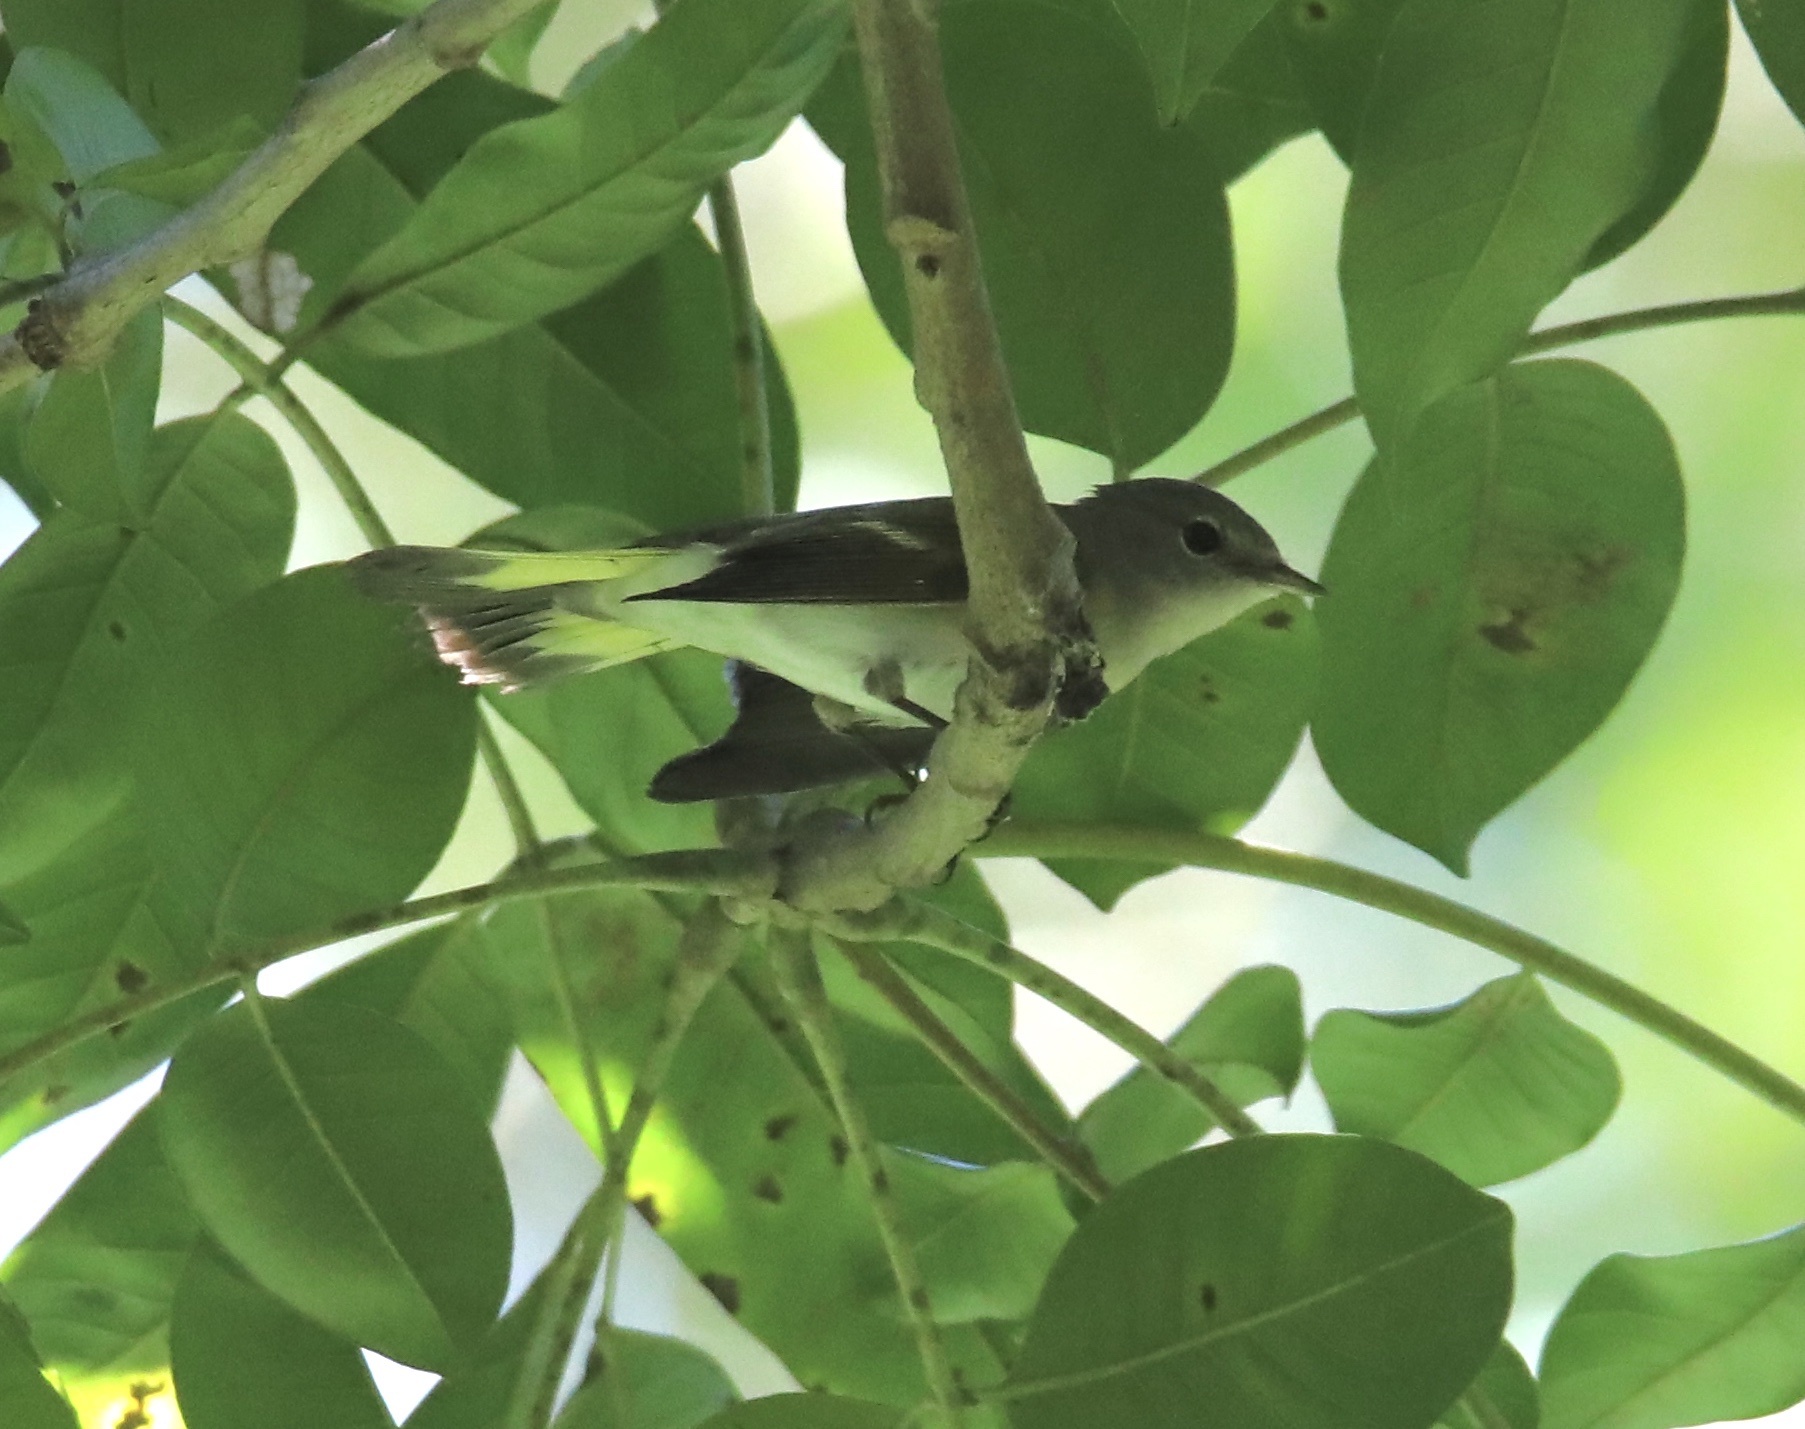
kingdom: Animalia
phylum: Chordata
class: Aves
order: Passeriformes
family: Parulidae
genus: Setophaga
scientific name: Setophaga ruticilla
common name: American redstart
